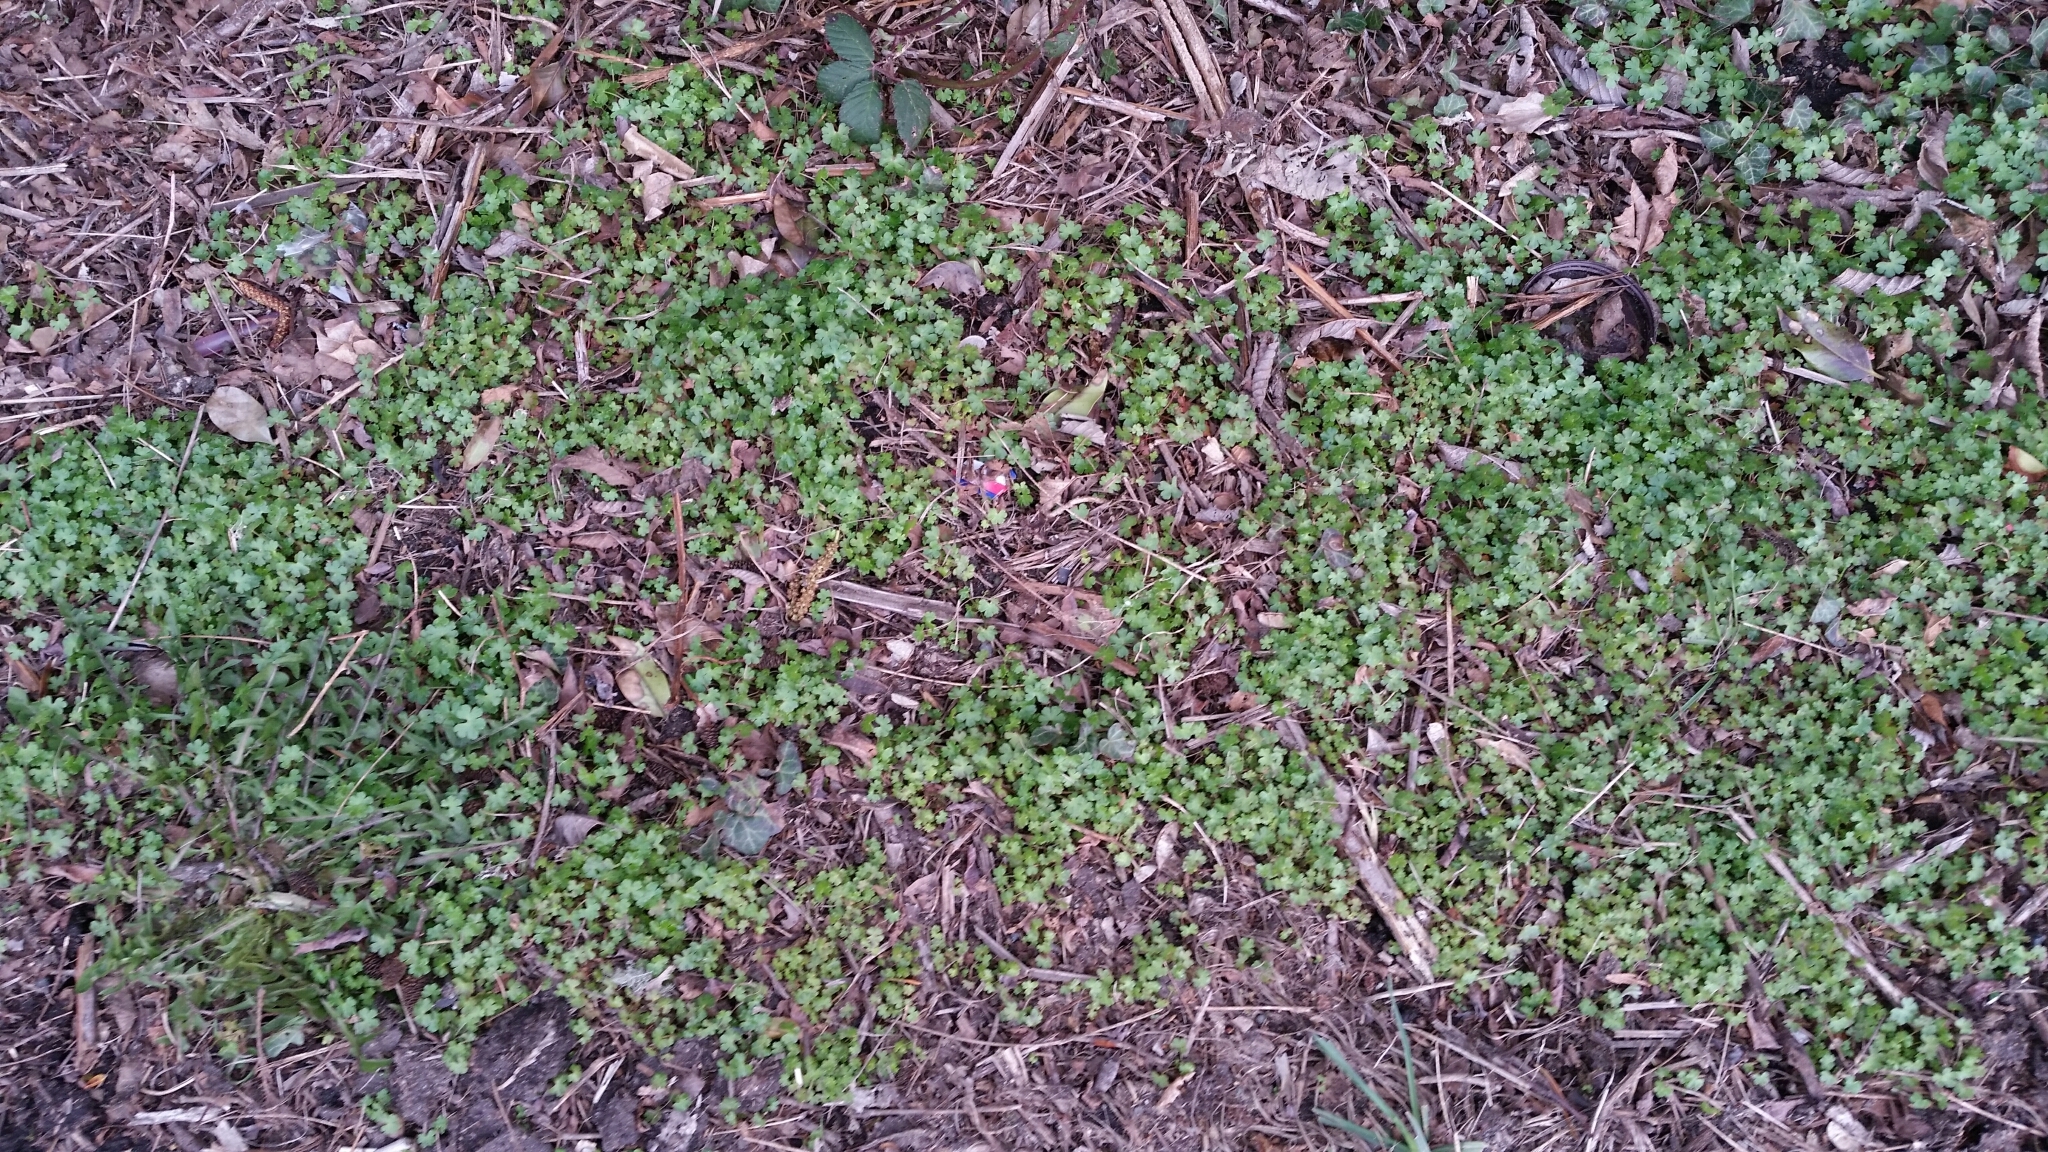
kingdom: Plantae
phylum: Tracheophyta
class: Magnoliopsida
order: Geraniales
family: Geraniaceae
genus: Geranium
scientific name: Geranium lucidum
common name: Shining crane's-bill
